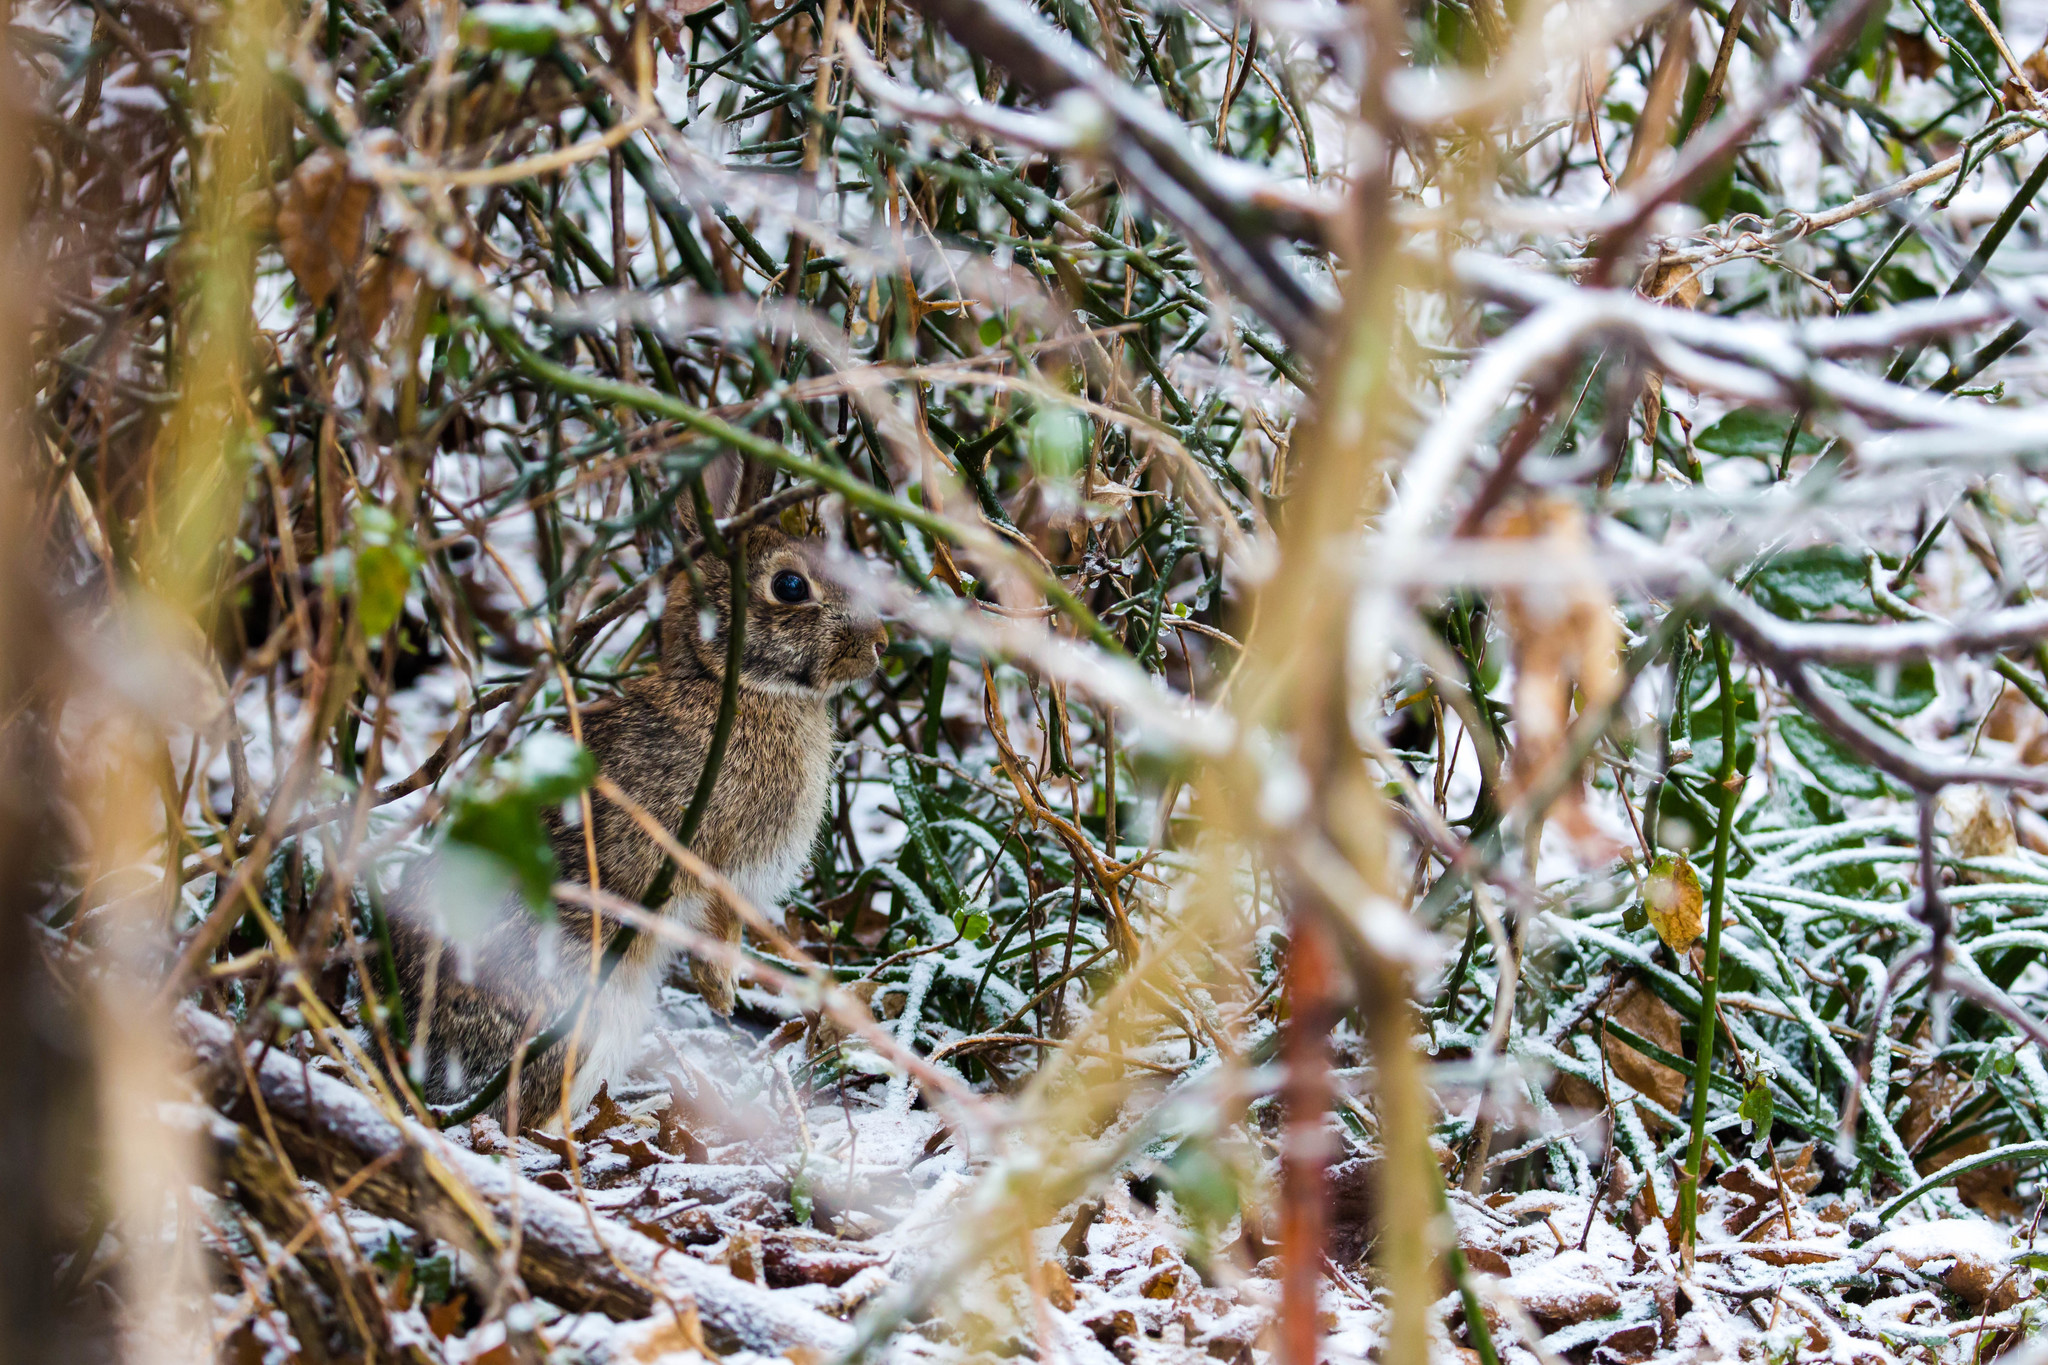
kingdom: Animalia
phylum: Chordata
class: Mammalia
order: Lagomorpha
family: Leporidae
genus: Sylvilagus
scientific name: Sylvilagus floridanus
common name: Eastern cottontail
